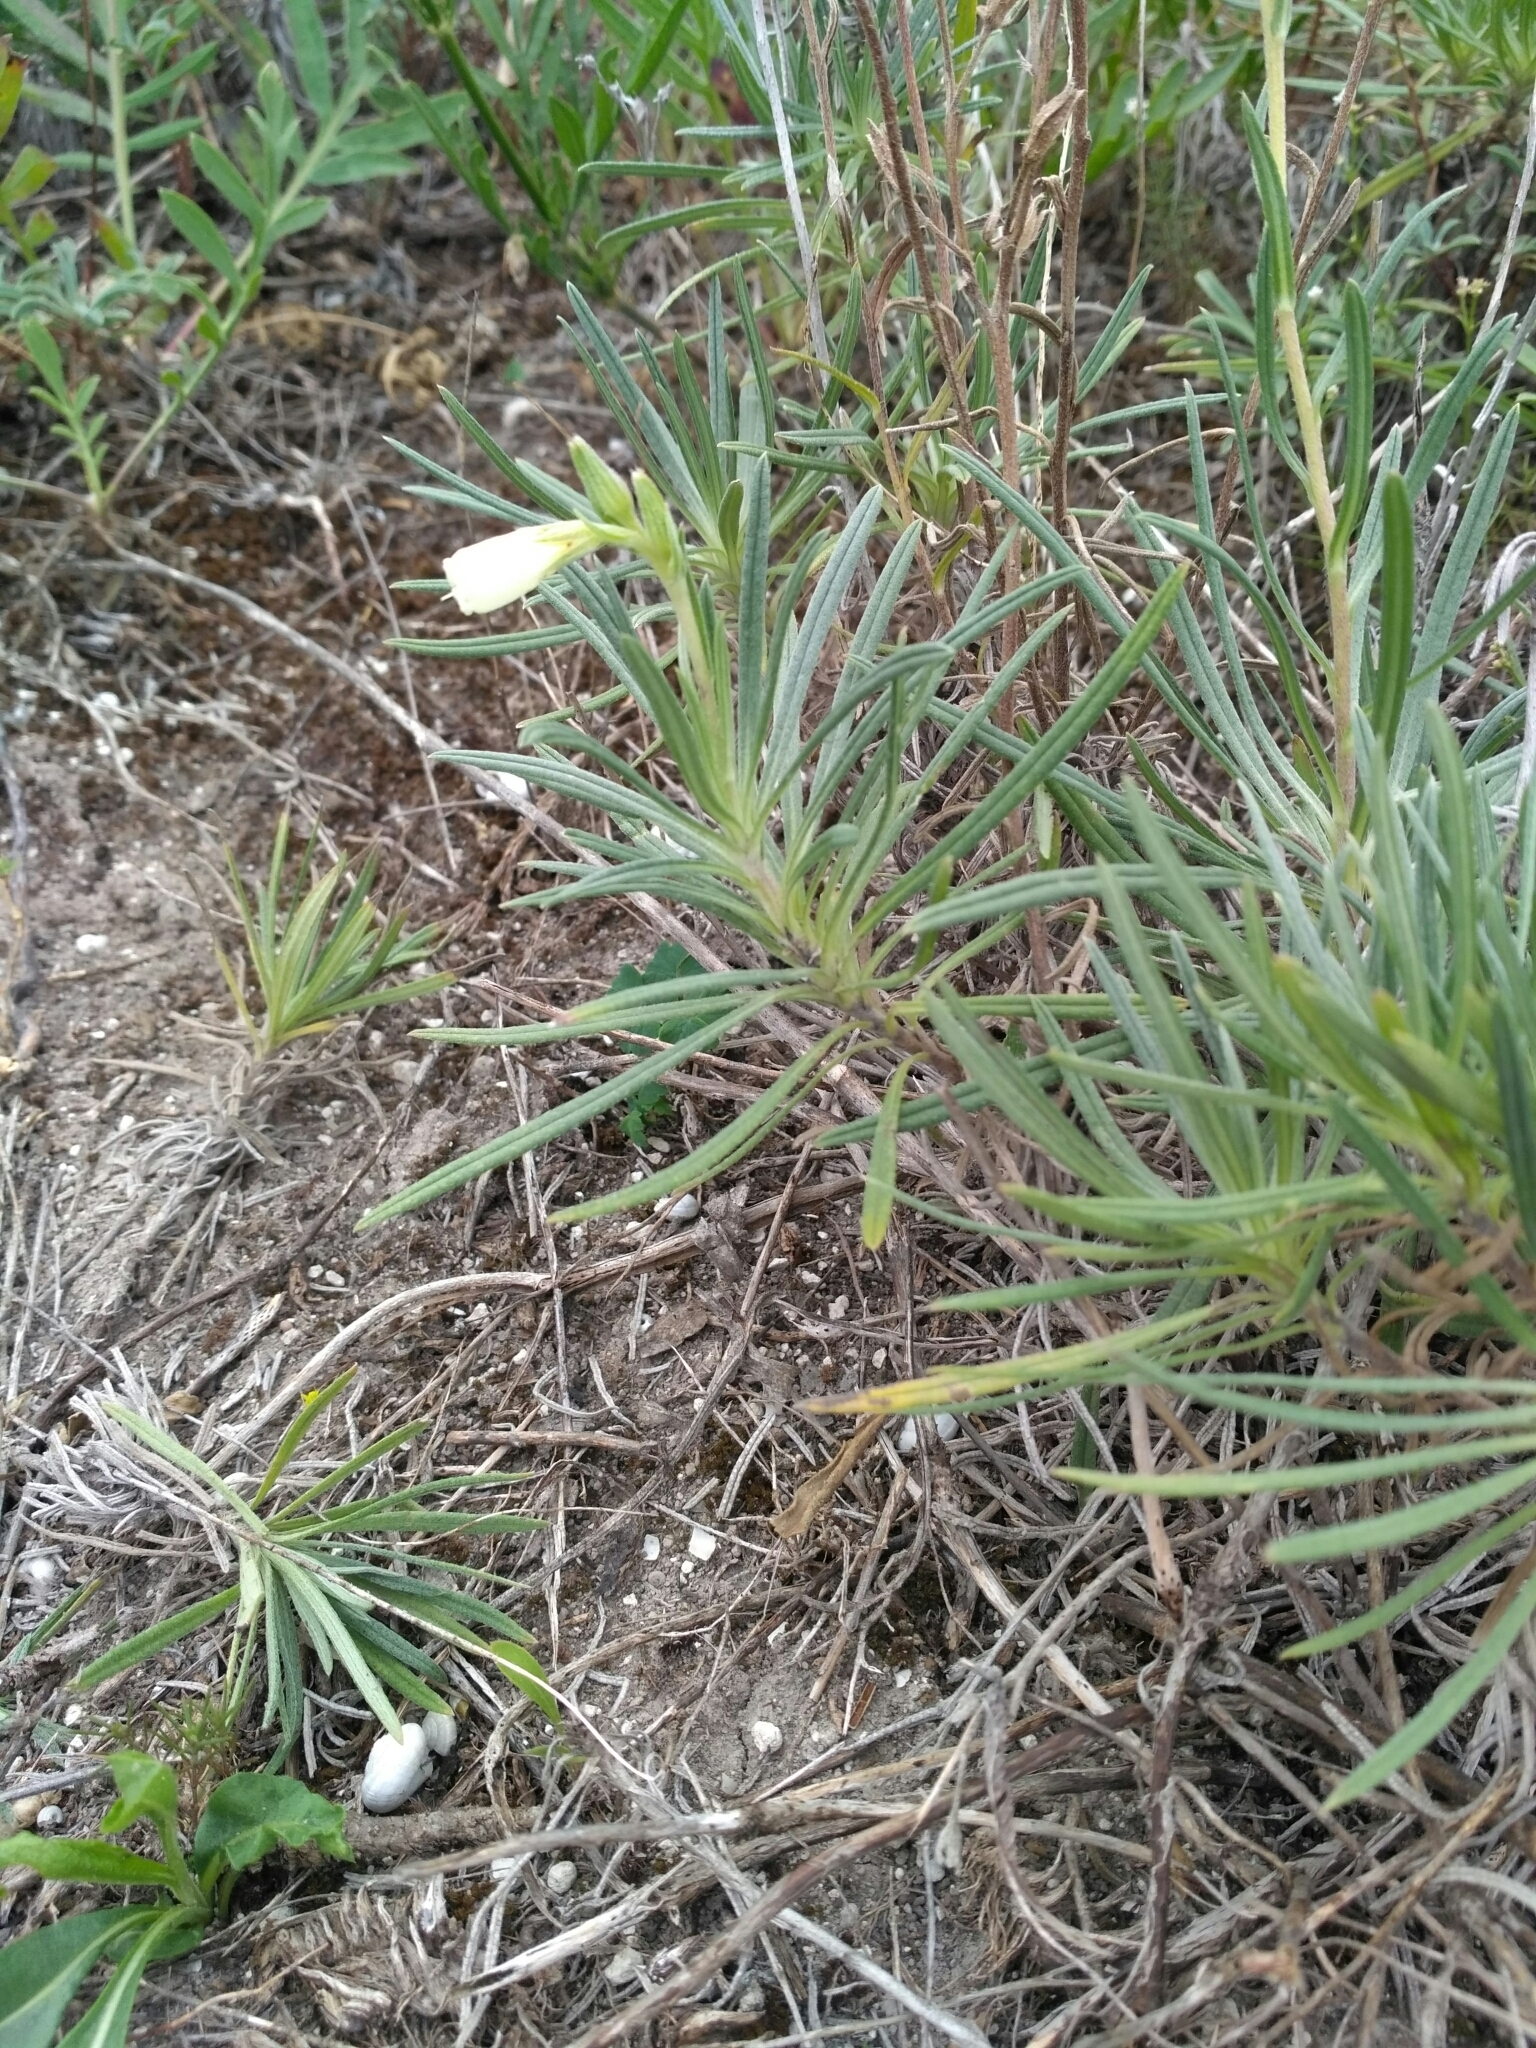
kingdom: Plantae
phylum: Tracheophyta
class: Magnoliopsida
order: Boraginales
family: Boraginaceae
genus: Onosma
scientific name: Onosma simplicissima
